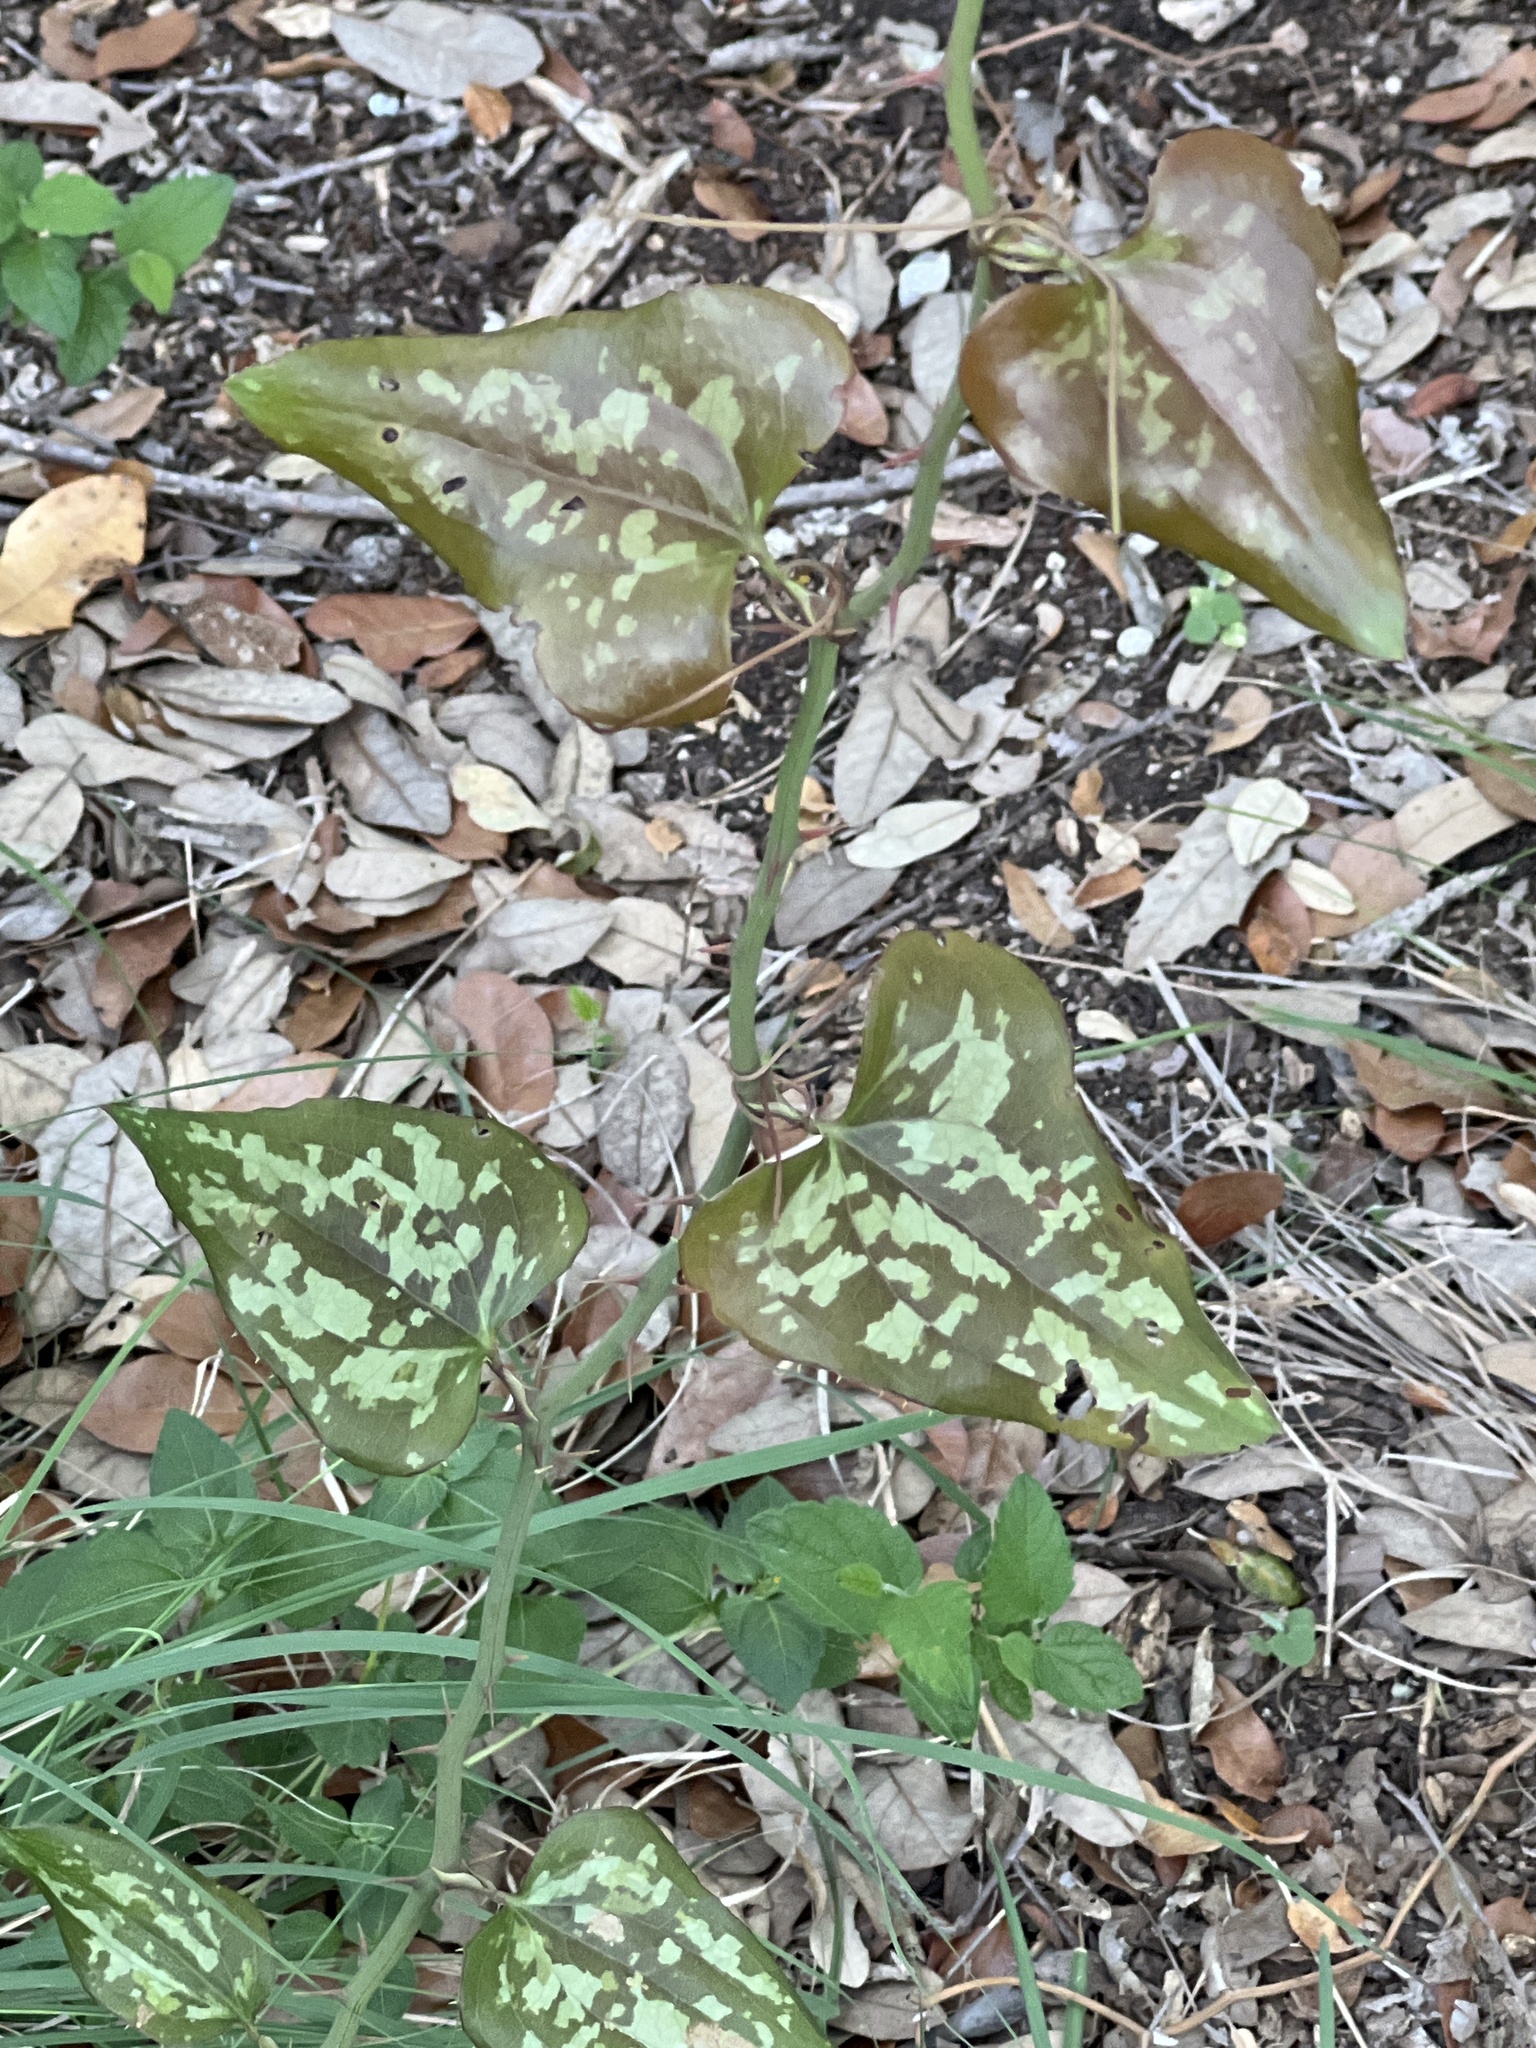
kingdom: Plantae
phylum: Tracheophyta
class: Liliopsida
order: Liliales
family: Smilacaceae
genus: Smilax
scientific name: Smilax bona-nox
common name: Catbrier
